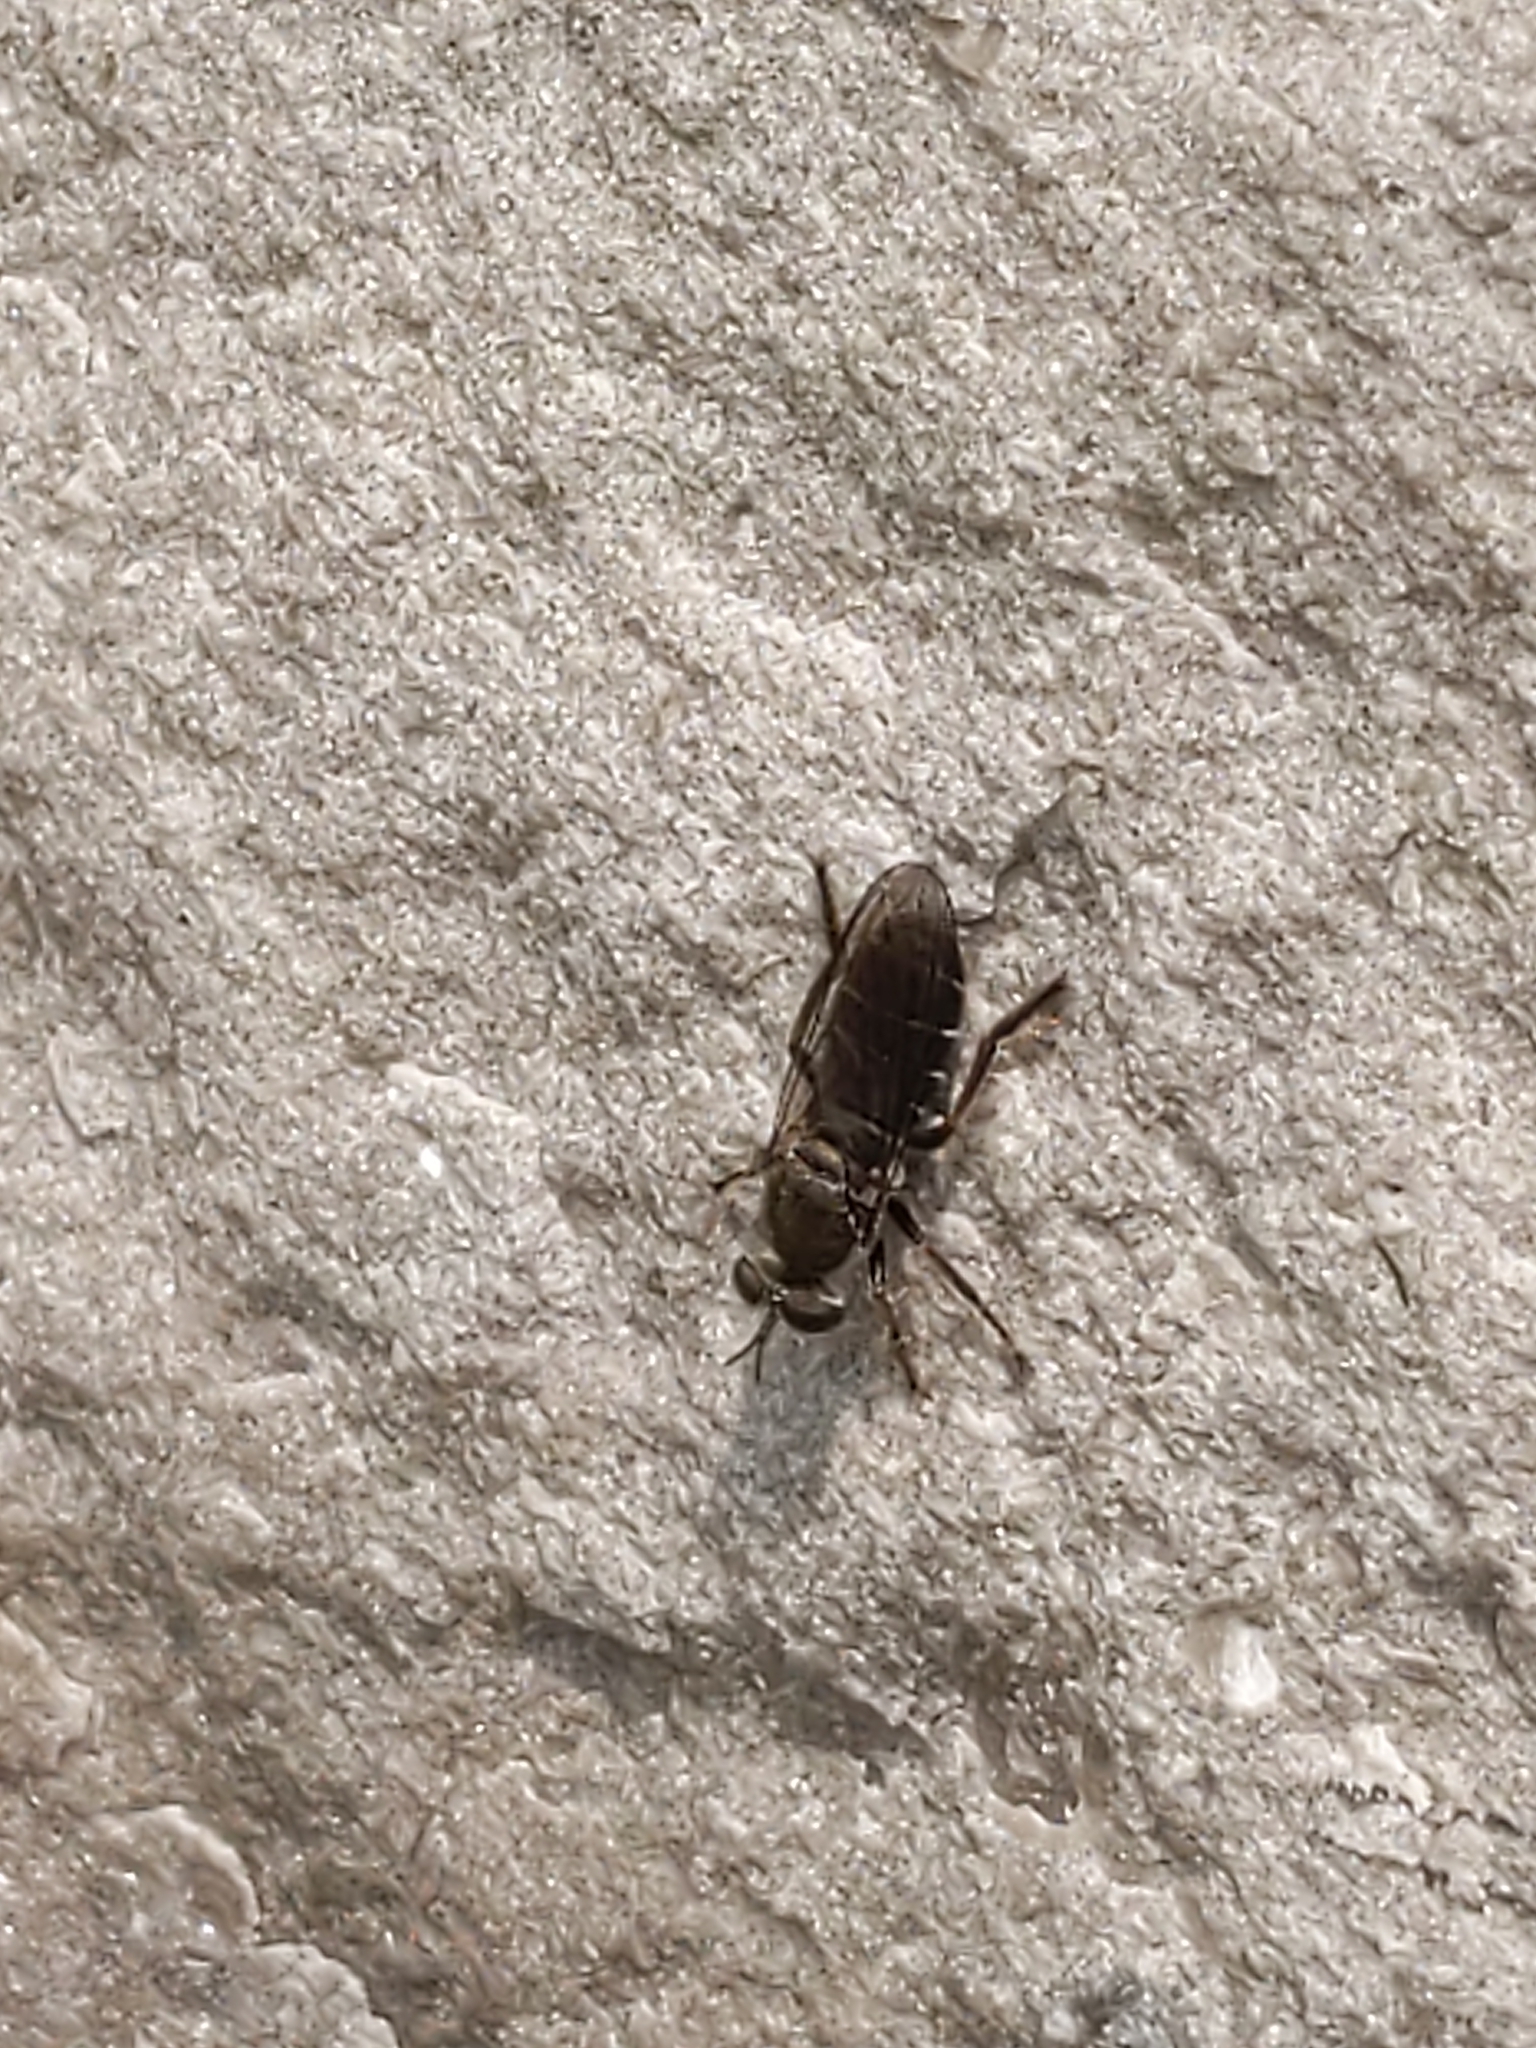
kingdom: Animalia
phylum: Arthropoda
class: Insecta
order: Diptera
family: Asilidae
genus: Atomosia
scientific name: Atomosia puella
